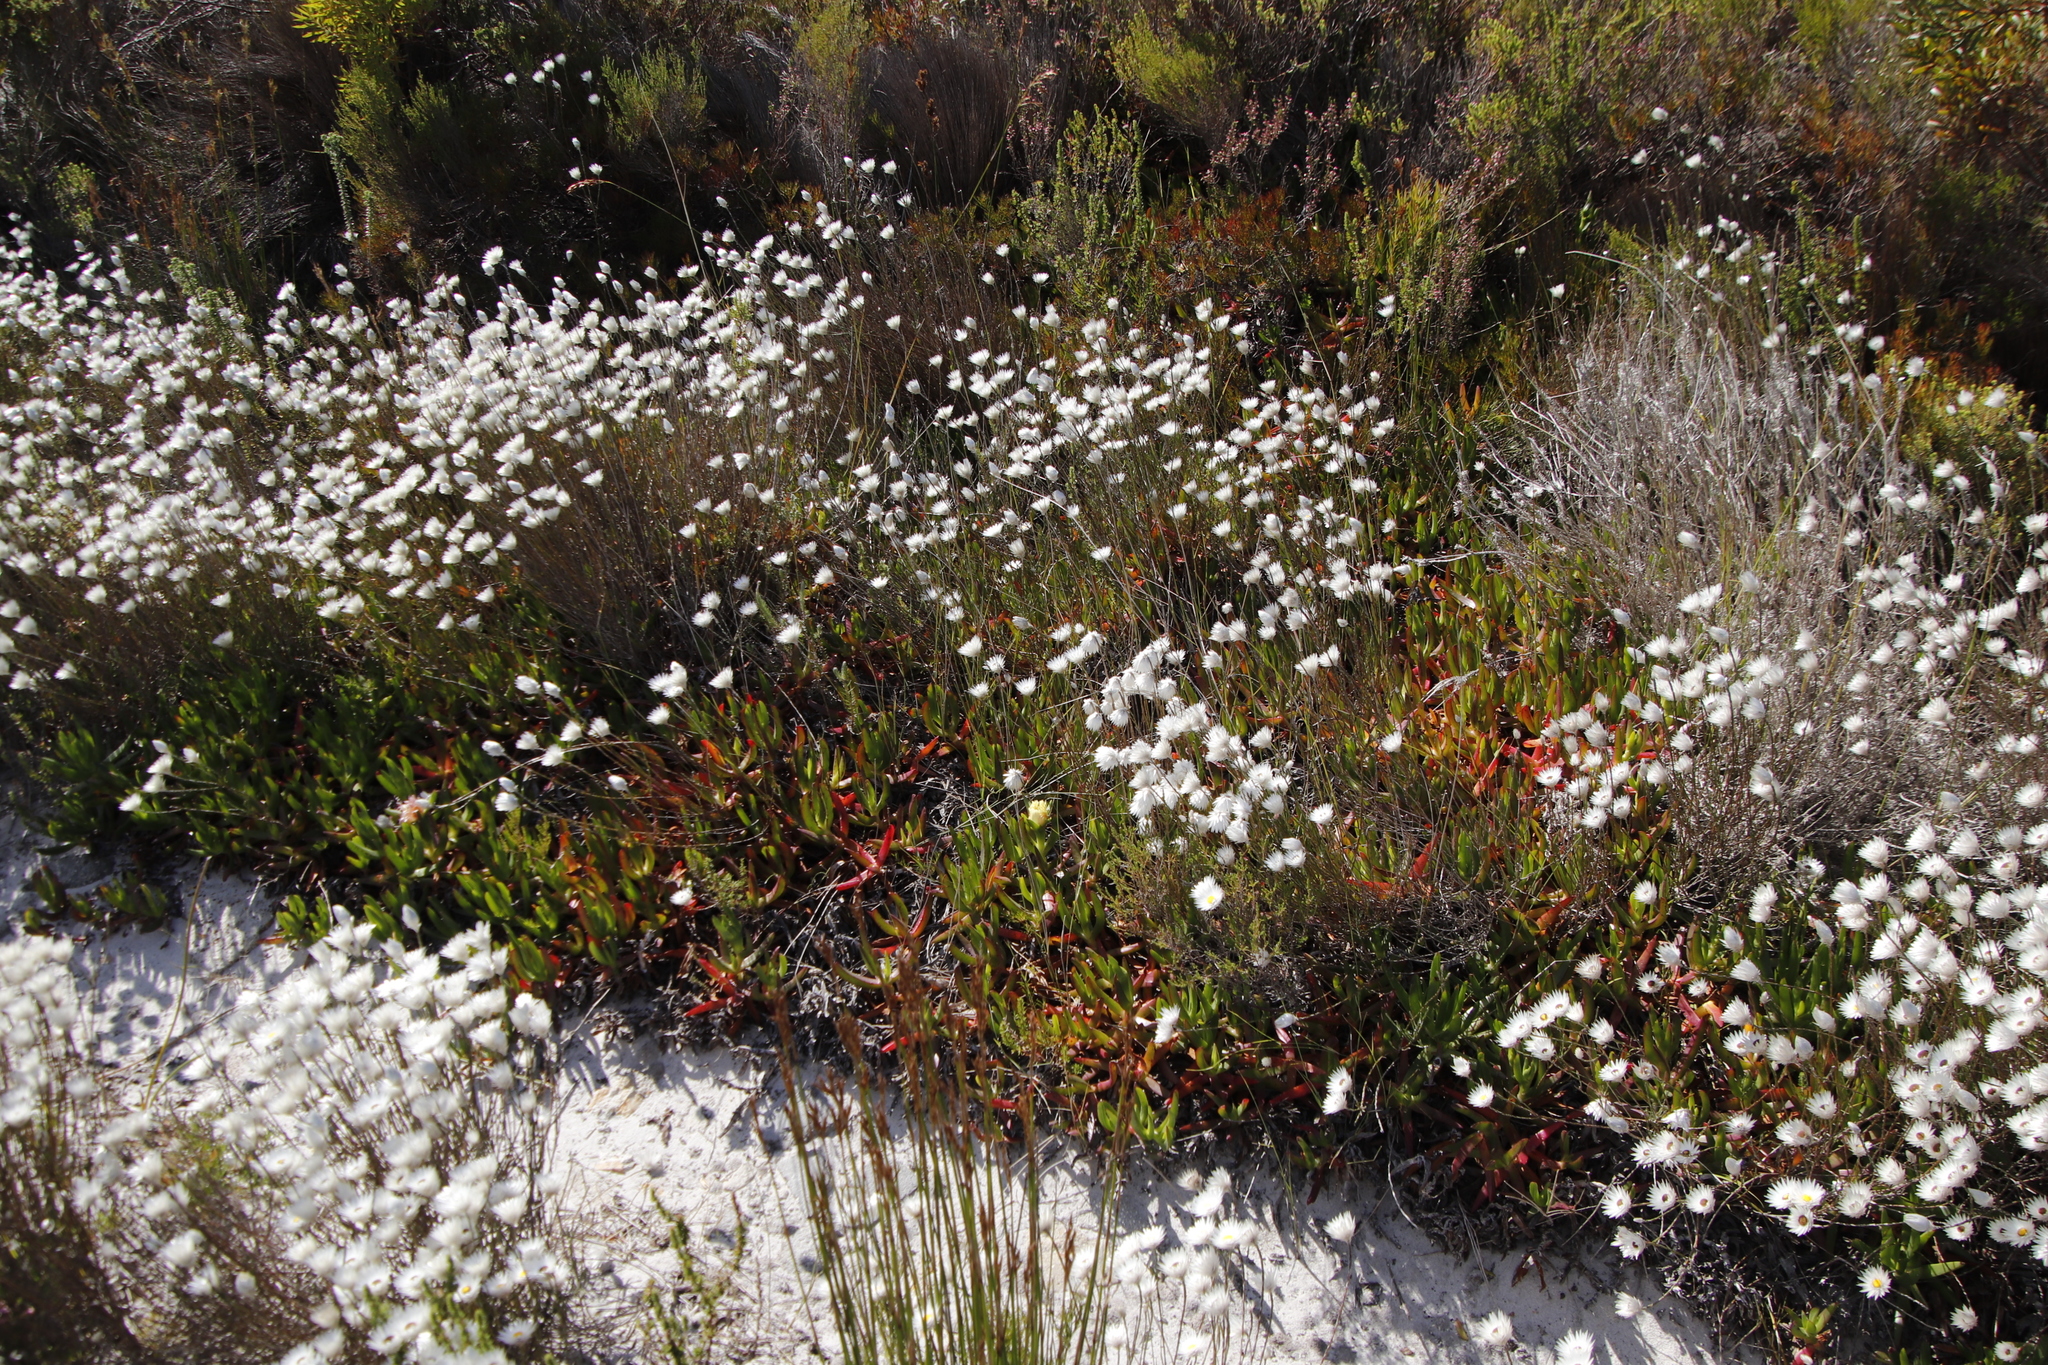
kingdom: Plantae
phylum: Tracheophyta
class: Magnoliopsida
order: Asterales
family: Asteraceae
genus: Edmondia
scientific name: Edmondia sesamoides
